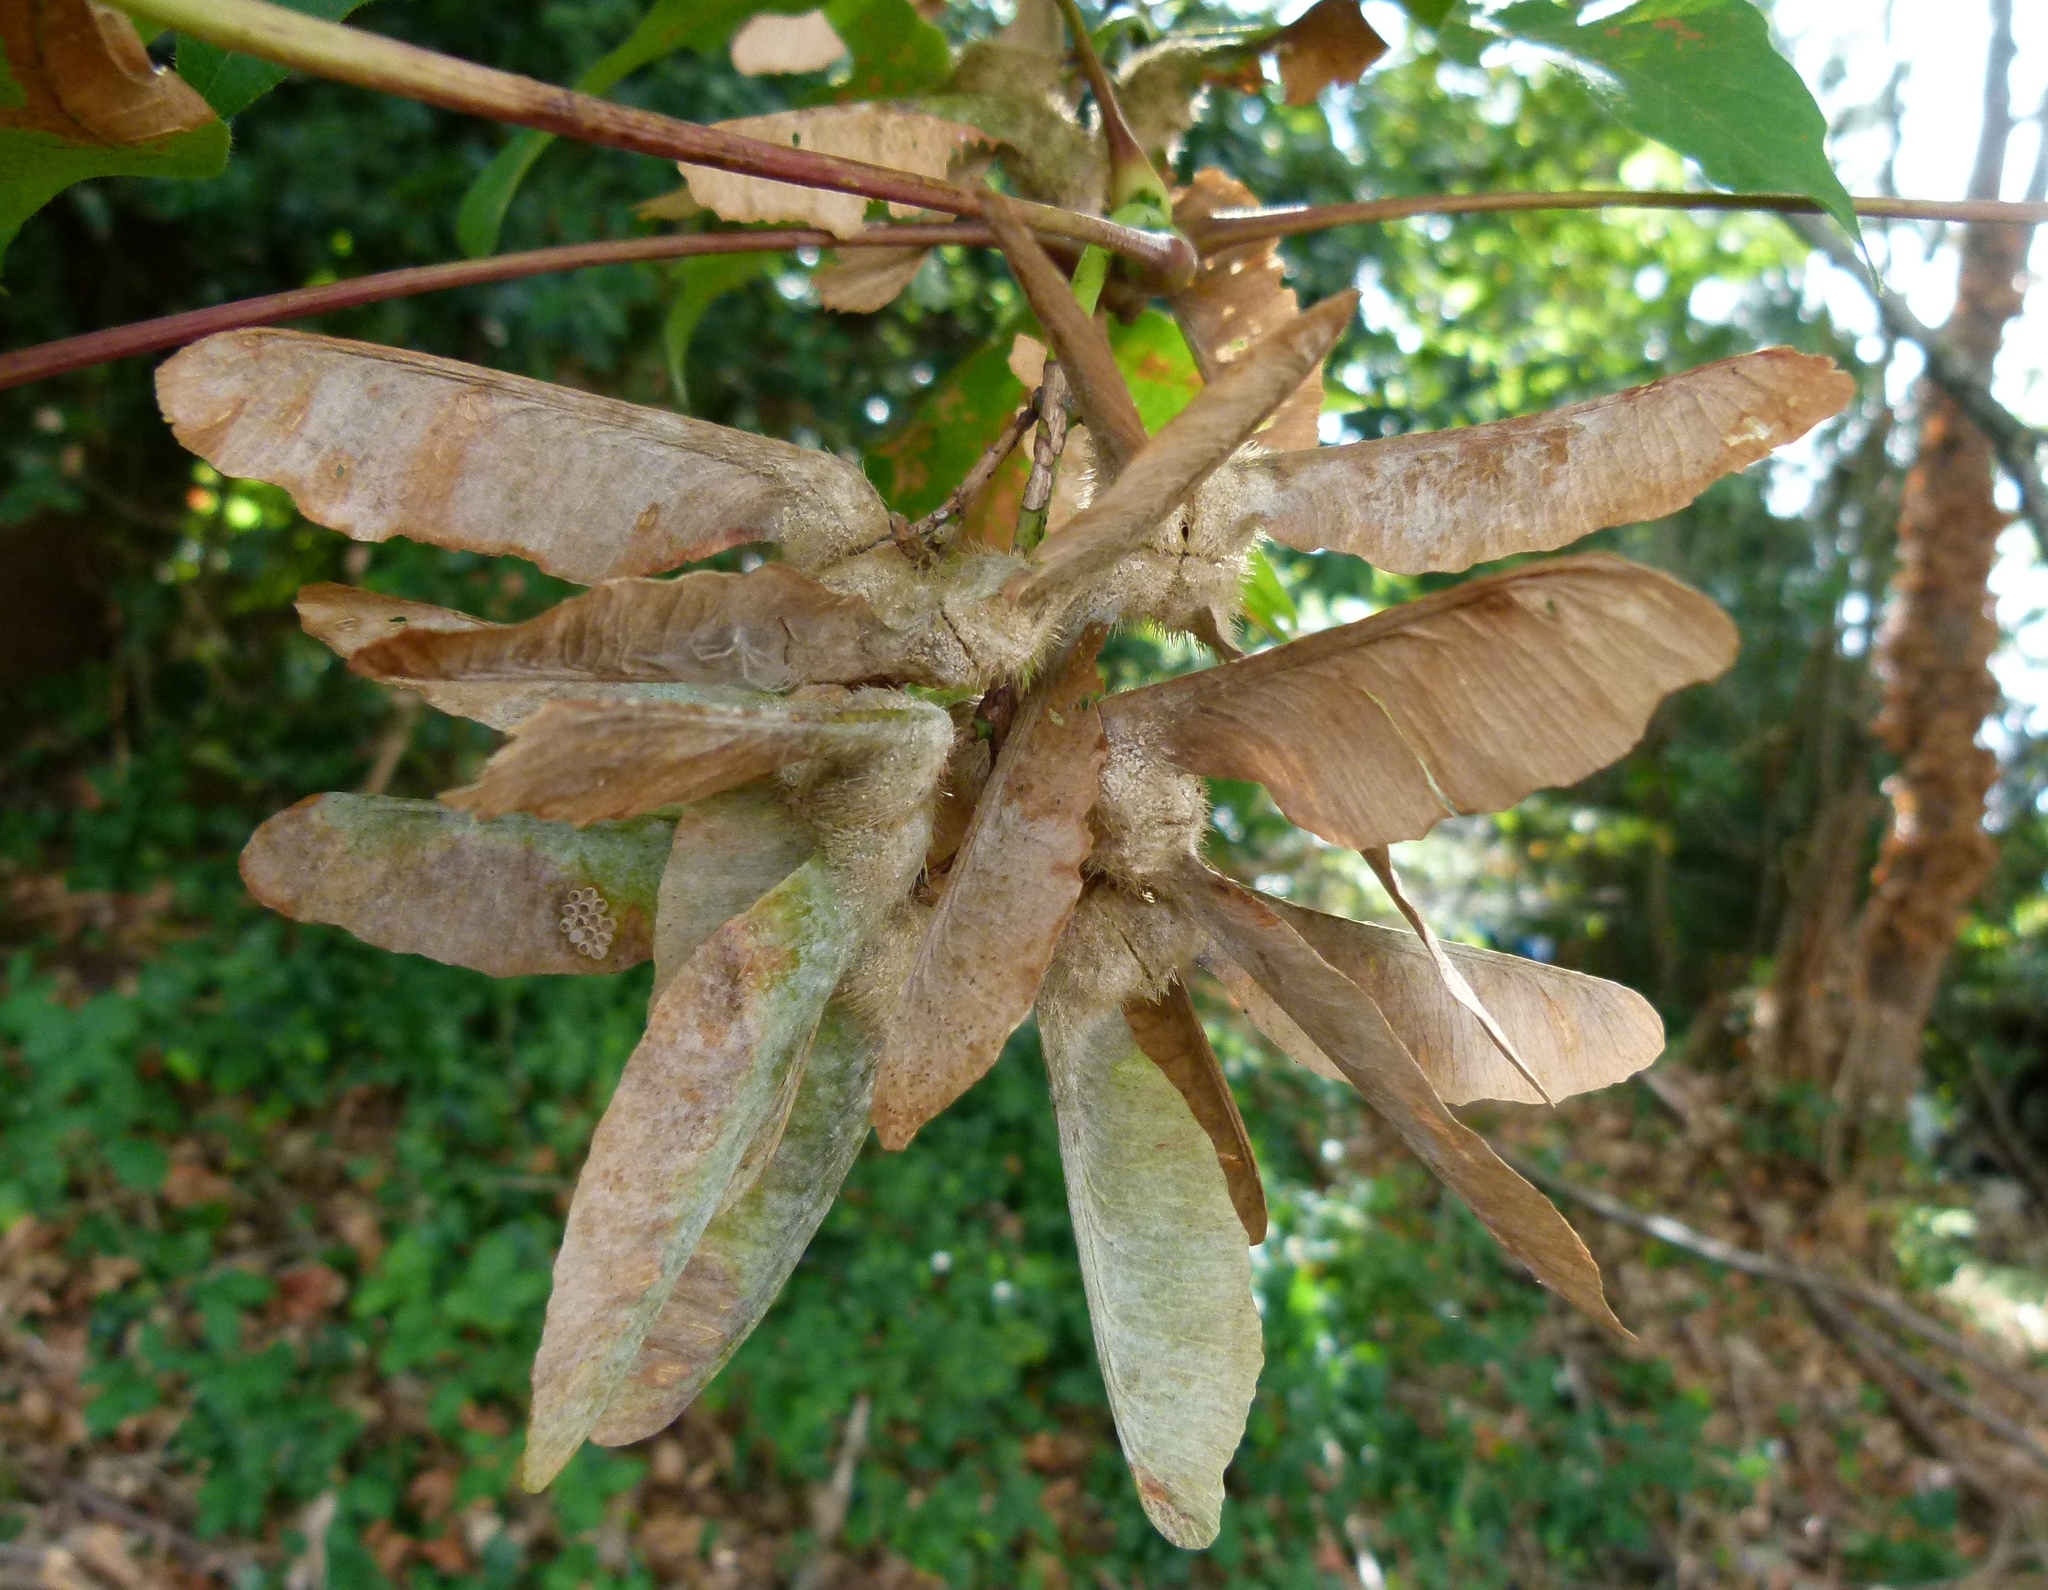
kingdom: Plantae
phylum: Tracheophyta
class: Magnoliopsida
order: Sapindales
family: Sapindaceae
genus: Acer
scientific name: Acer macrophyllum
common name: Oregon maple
